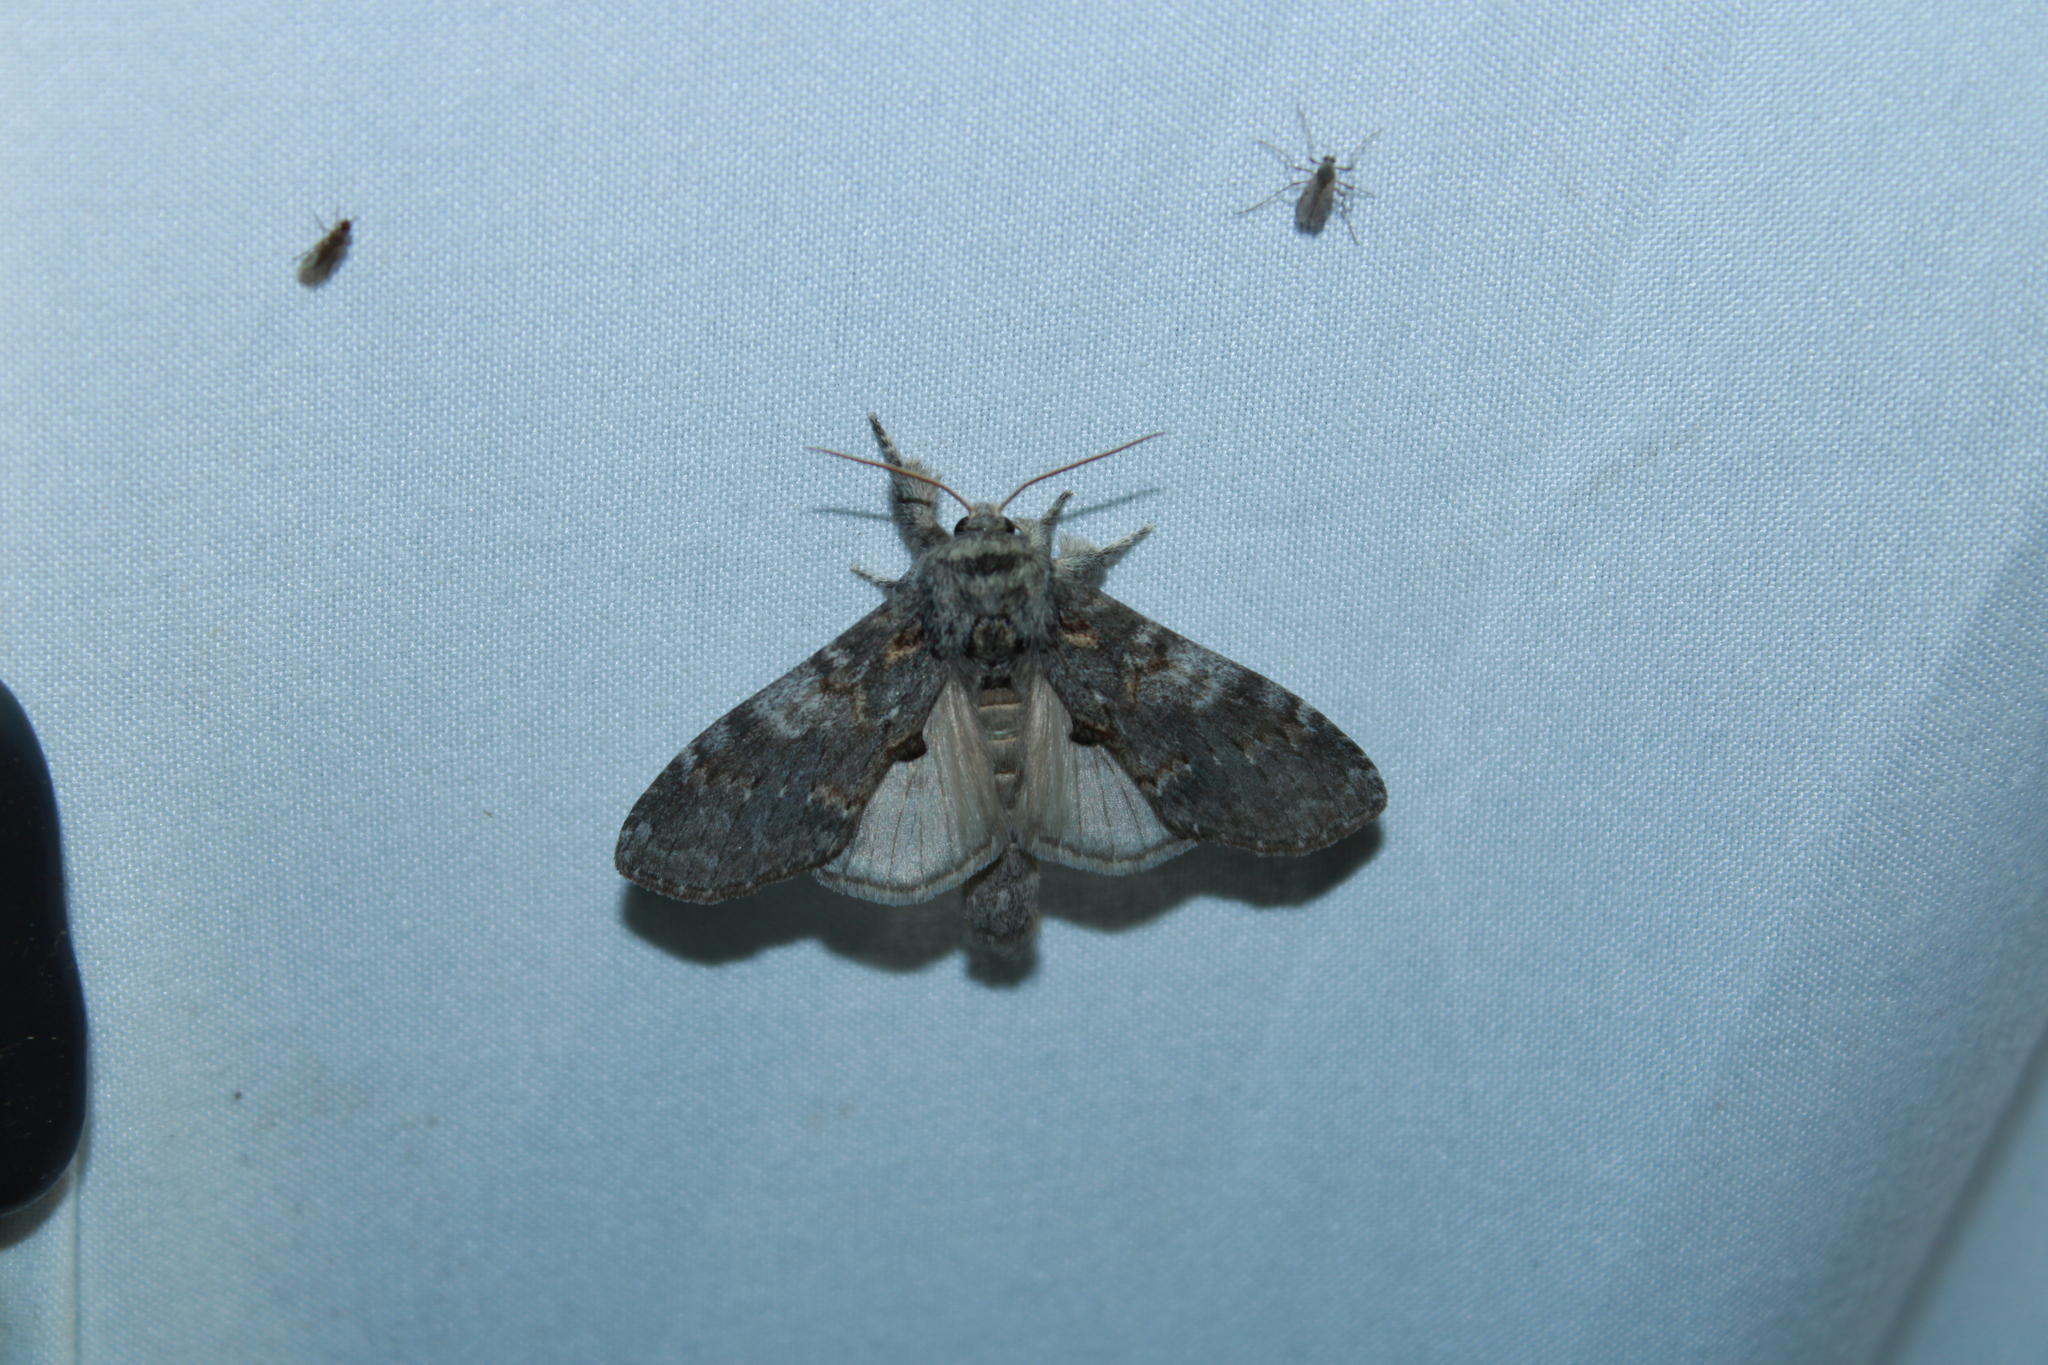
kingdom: Animalia
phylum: Arthropoda
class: Insecta
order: Lepidoptera
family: Notodontidae
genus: Peridea
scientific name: Peridea angulosa
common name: Angulose prominent
